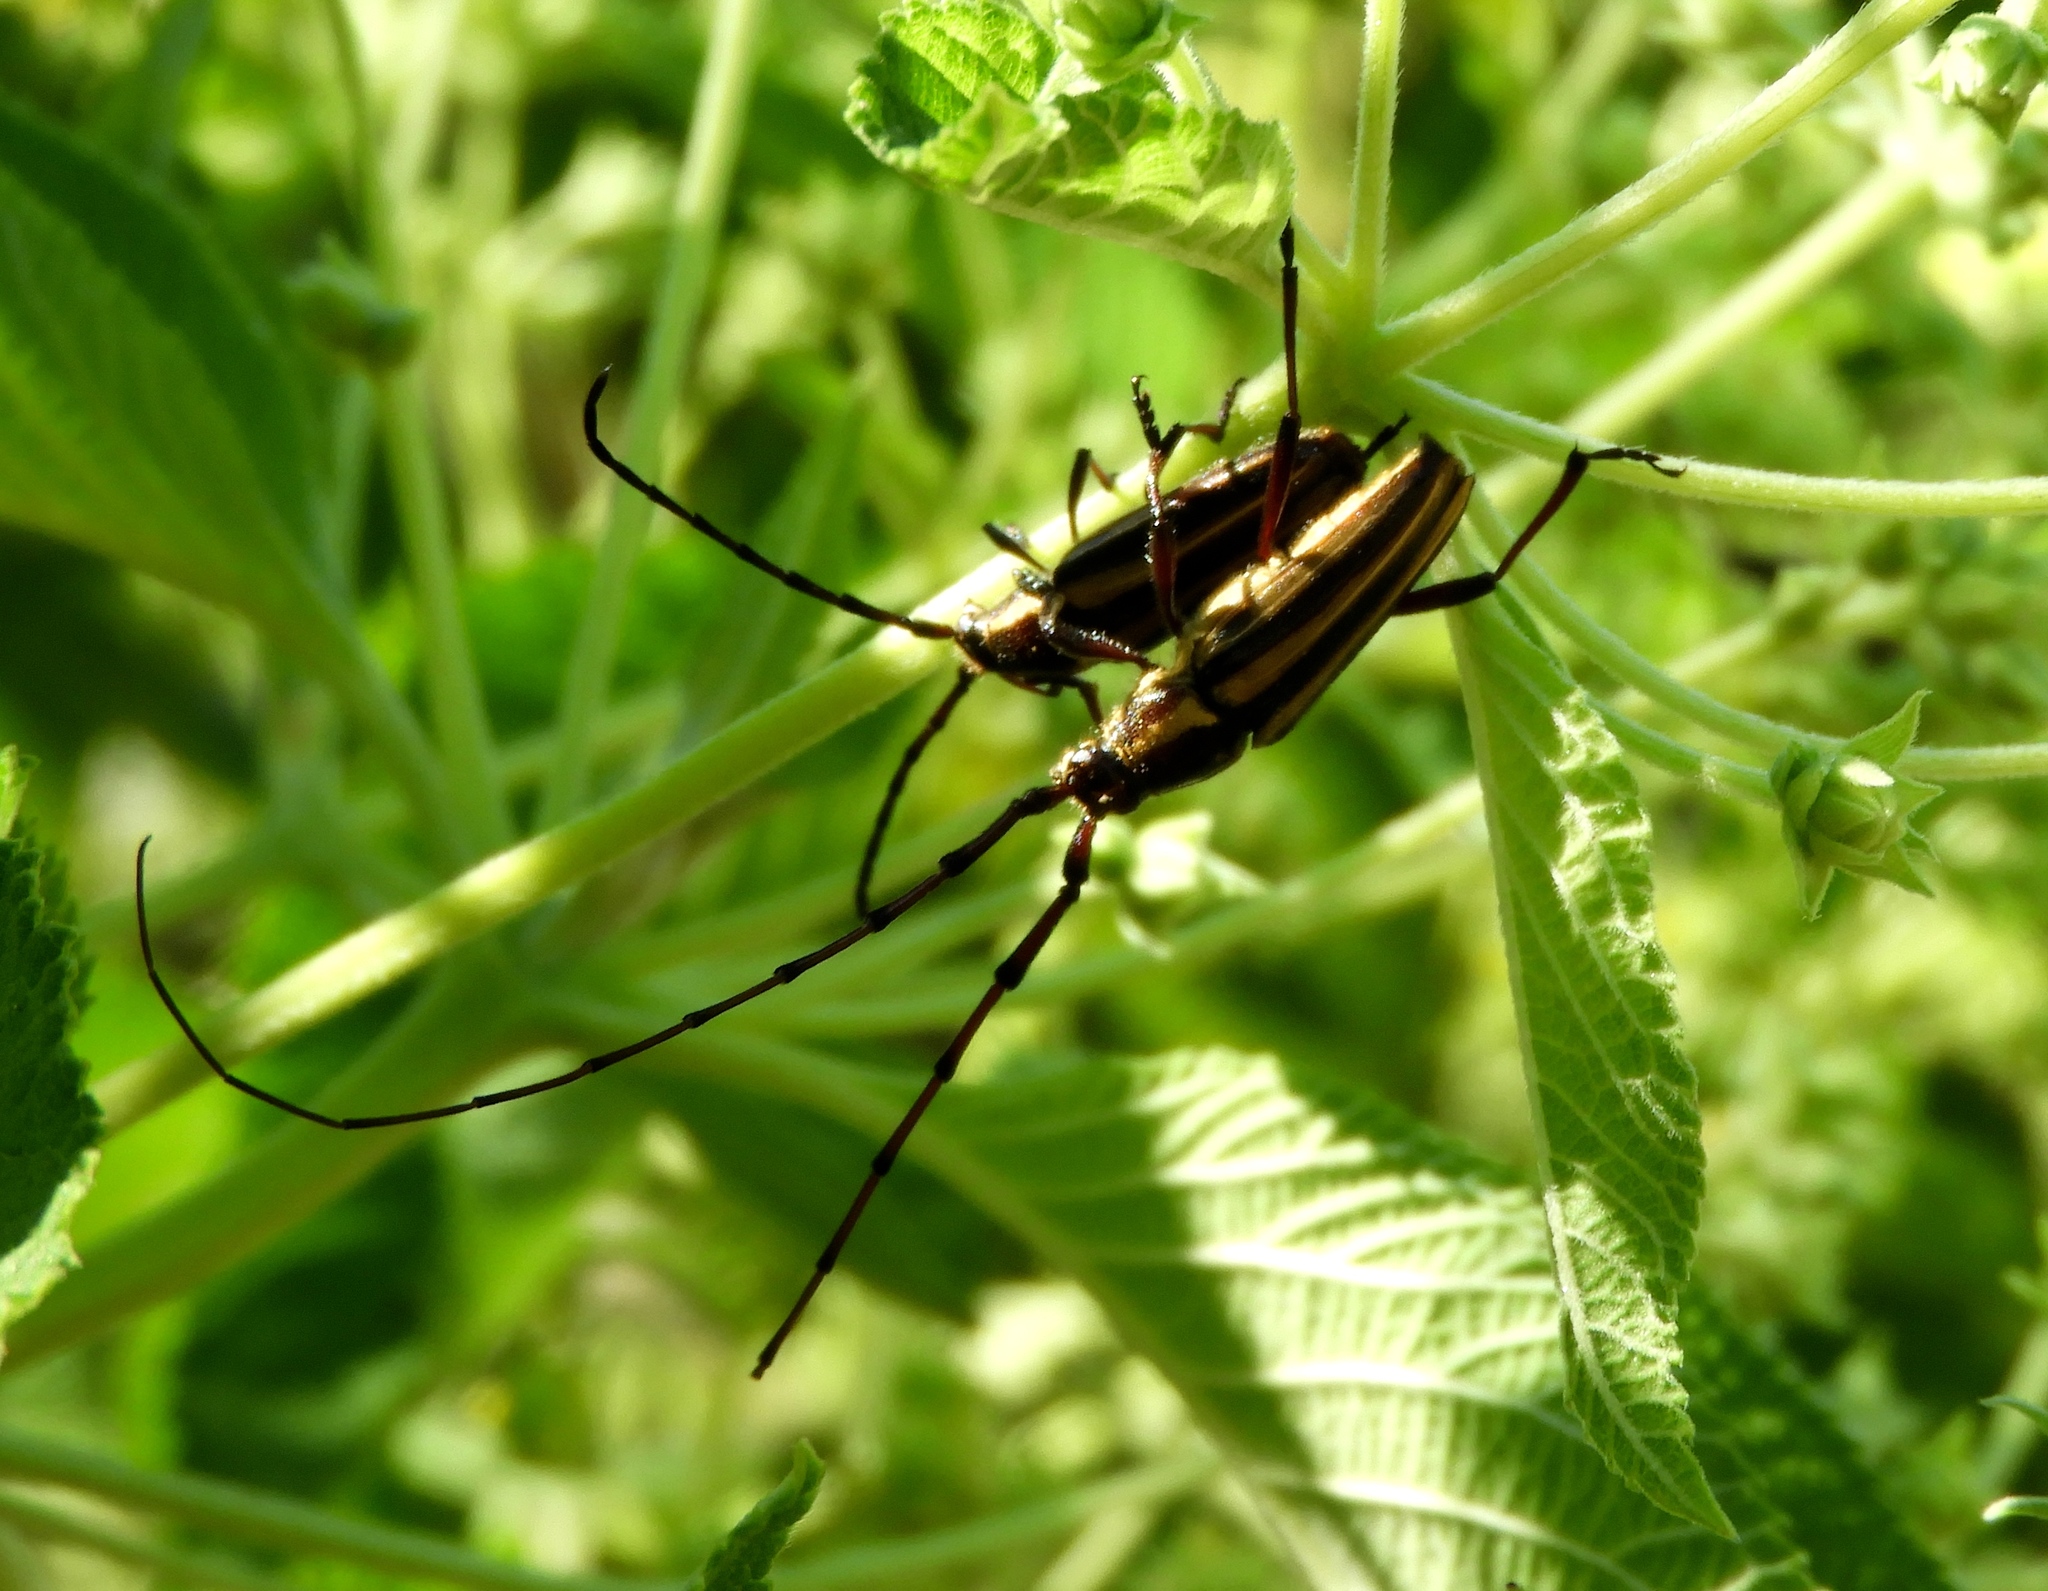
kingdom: Animalia
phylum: Arthropoda
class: Insecta
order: Coleoptera
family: Cerambycidae
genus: Sphaenothecus
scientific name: Sphaenothecus maccartyi
